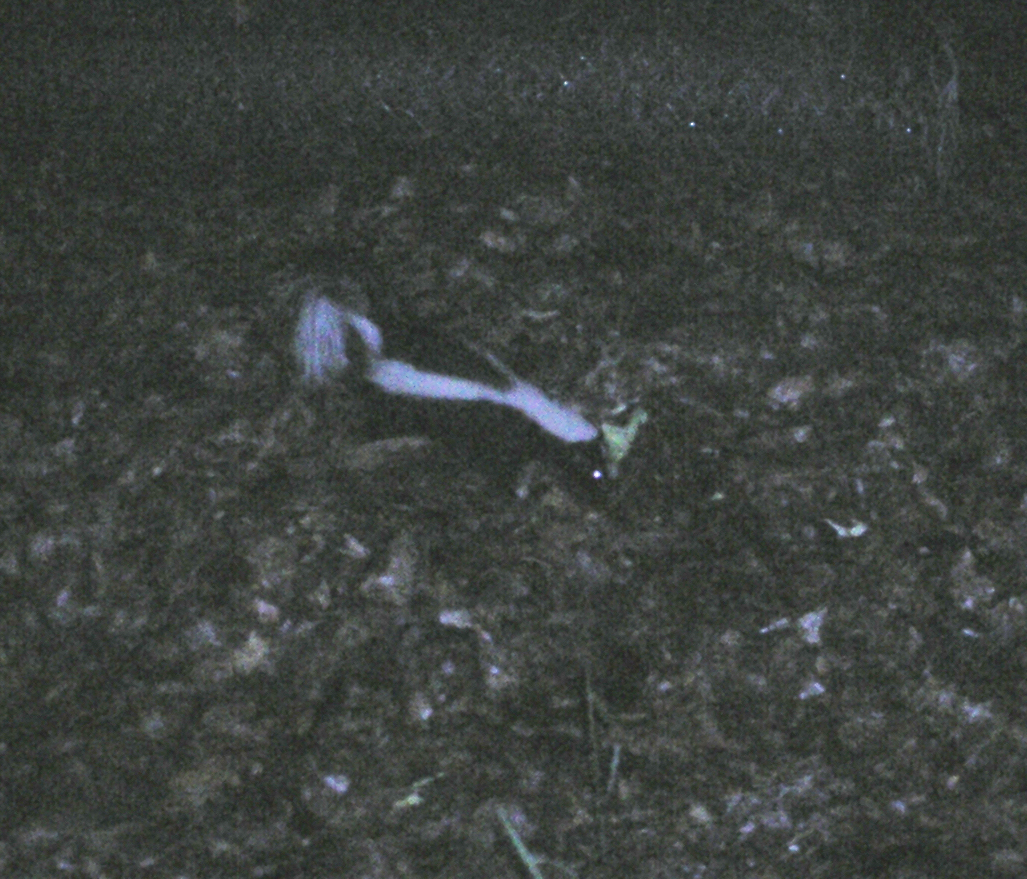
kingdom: Animalia
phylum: Chordata
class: Mammalia
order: Carnivora
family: Mephitidae
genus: Mephitis
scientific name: Mephitis mephitis
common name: Striped skunk
